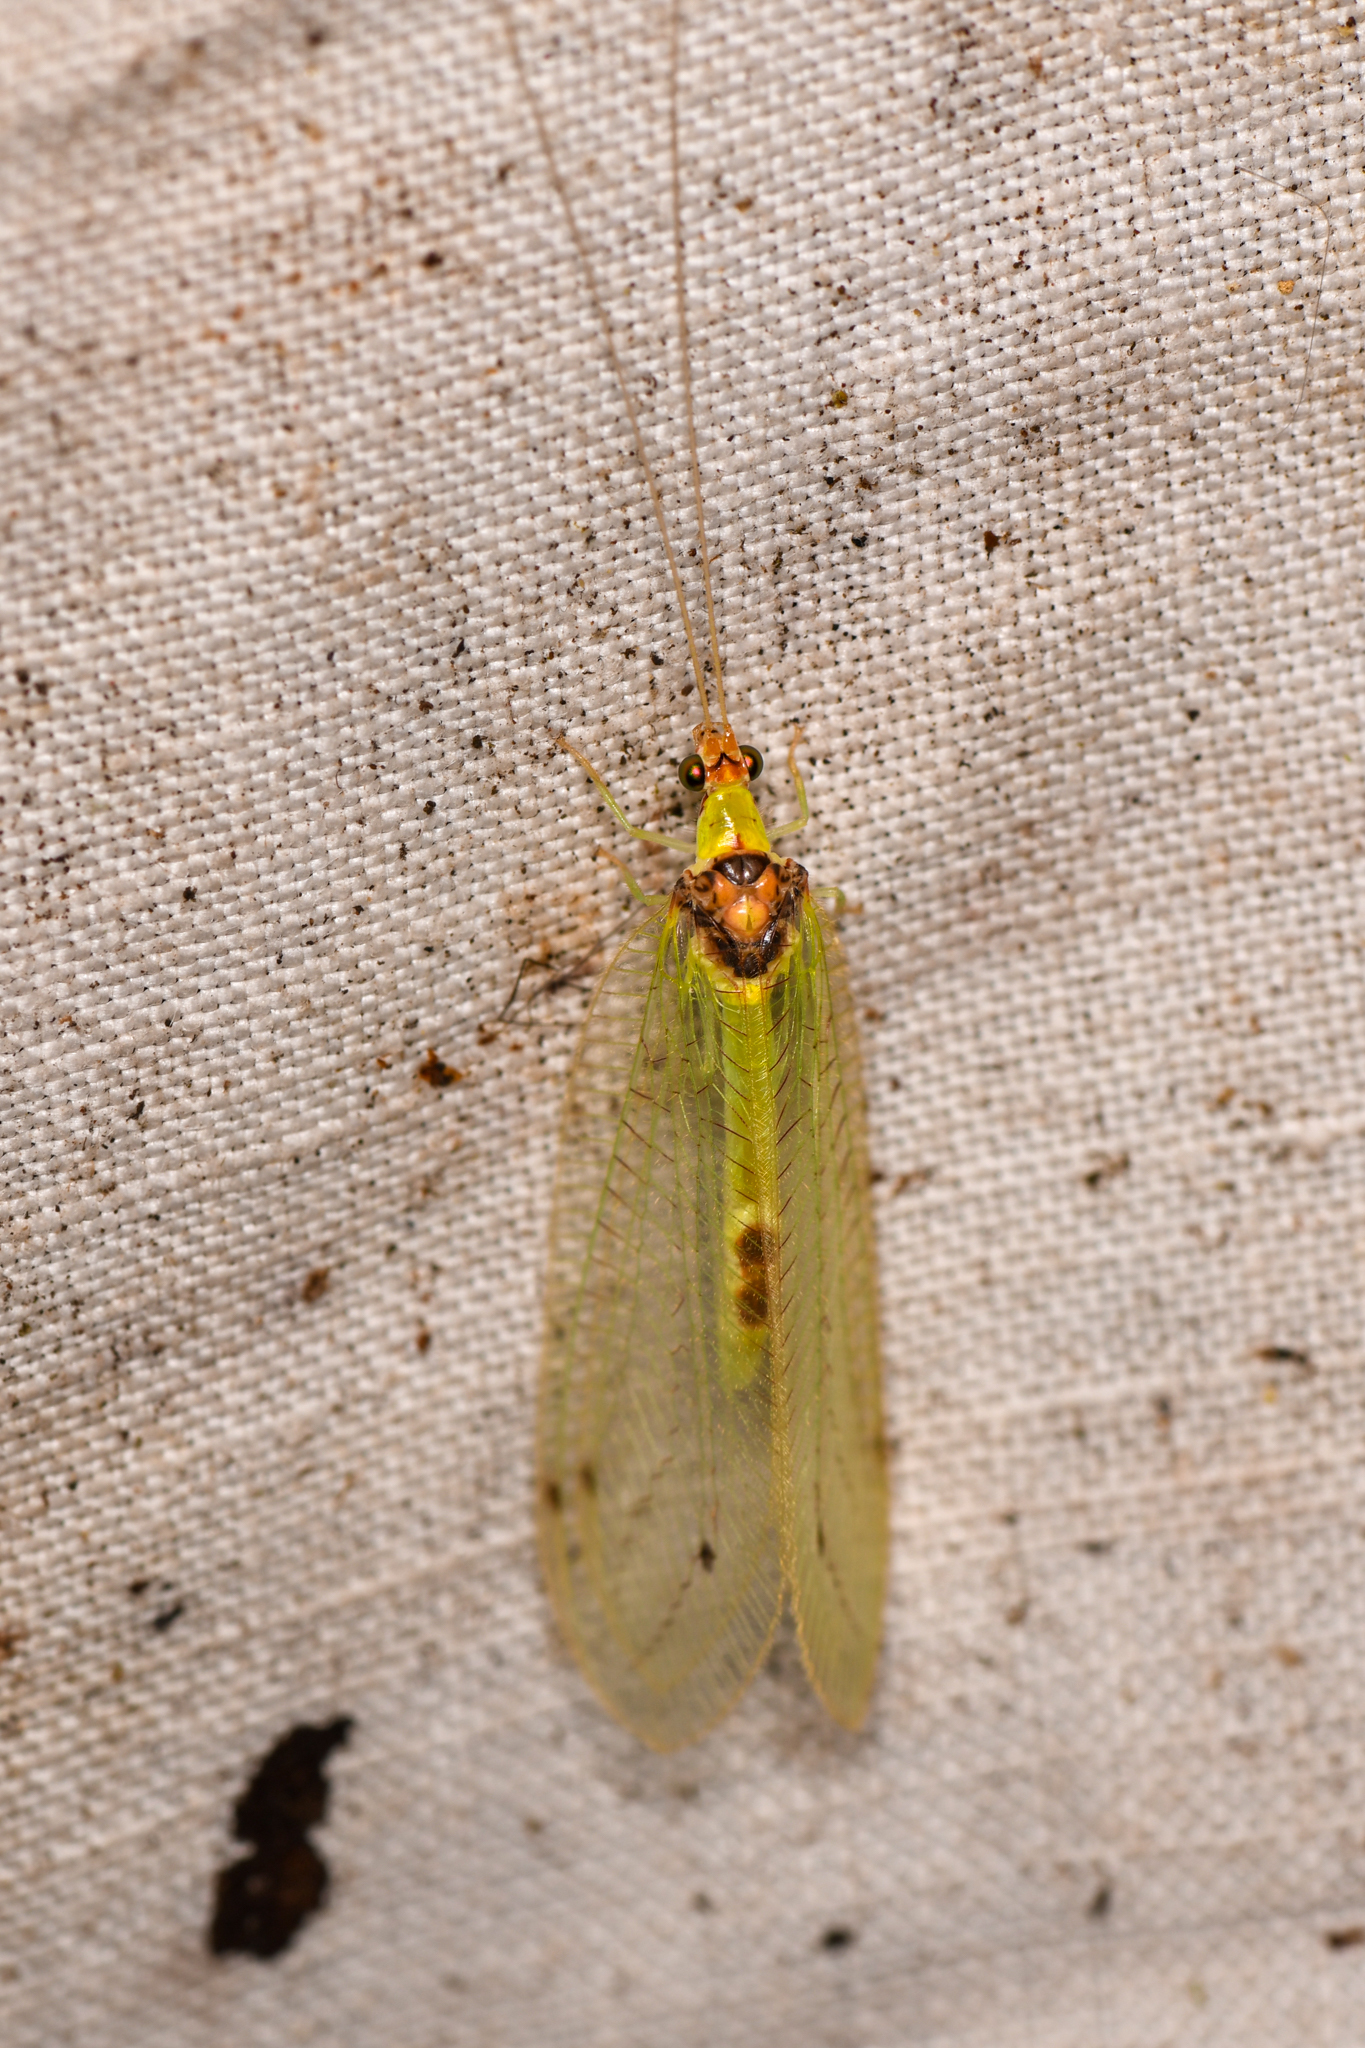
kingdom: Animalia
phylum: Arthropoda
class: Insecta
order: Neuroptera
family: Chrysopidae
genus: Gonzaga
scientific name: Gonzaga torquatus
